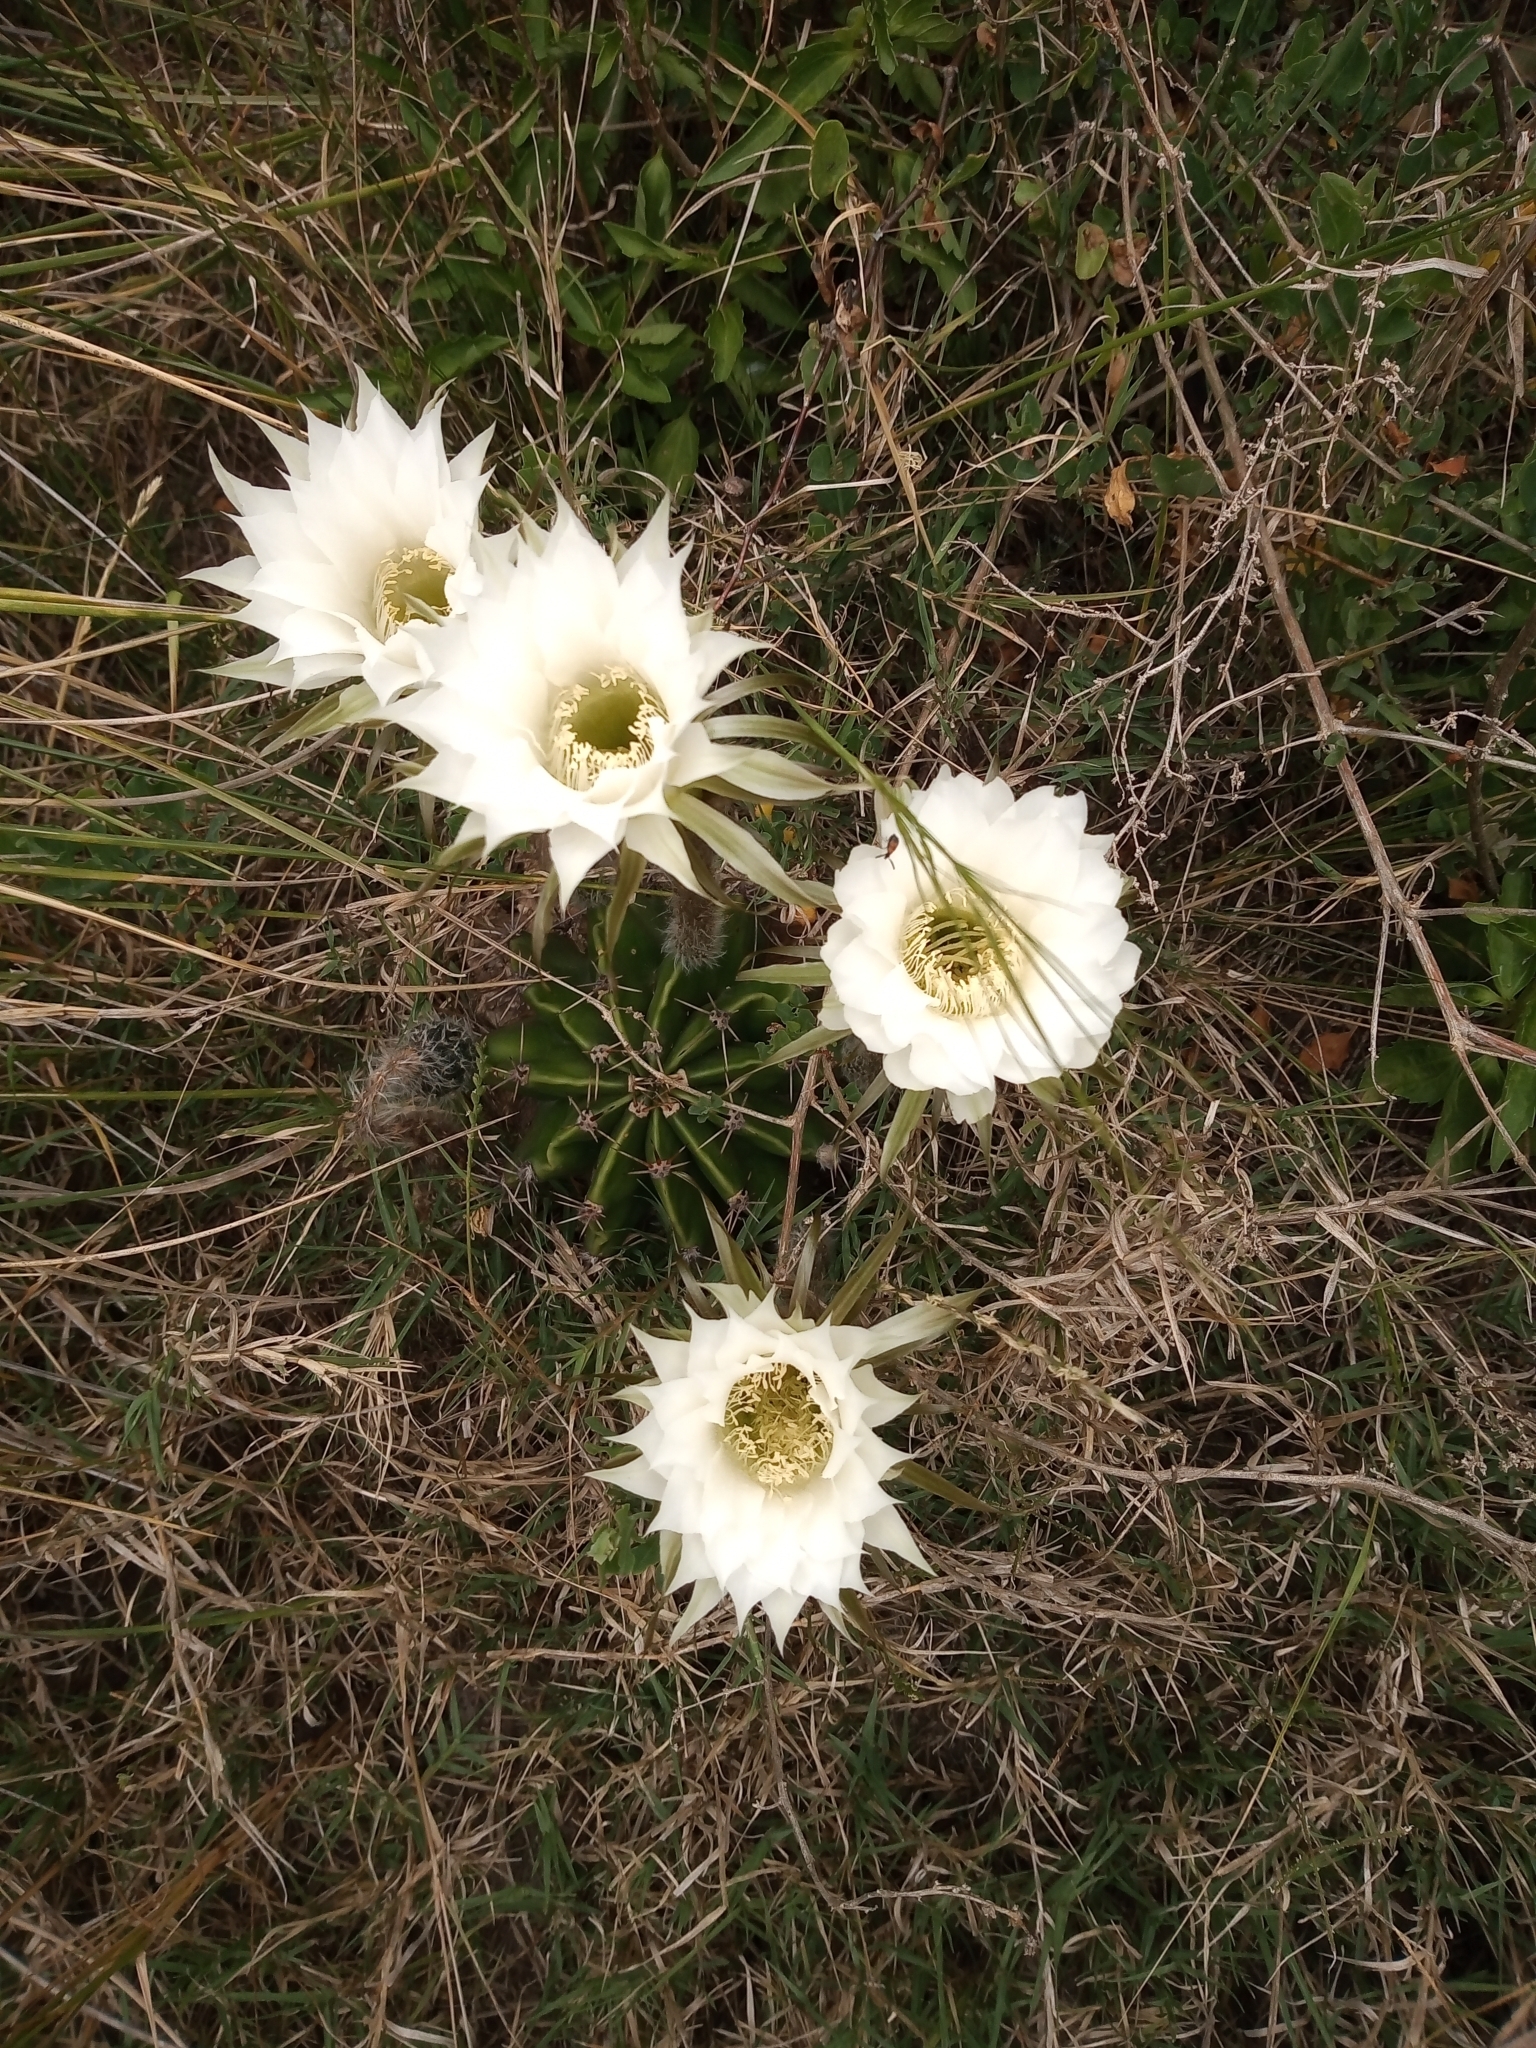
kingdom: Plantae
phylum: Tracheophyta
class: Magnoliopsida
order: Caryophyllales
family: Cactaceae
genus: Echinopsis
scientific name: Echinopsis oxygona
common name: Red easter-lily cactus
